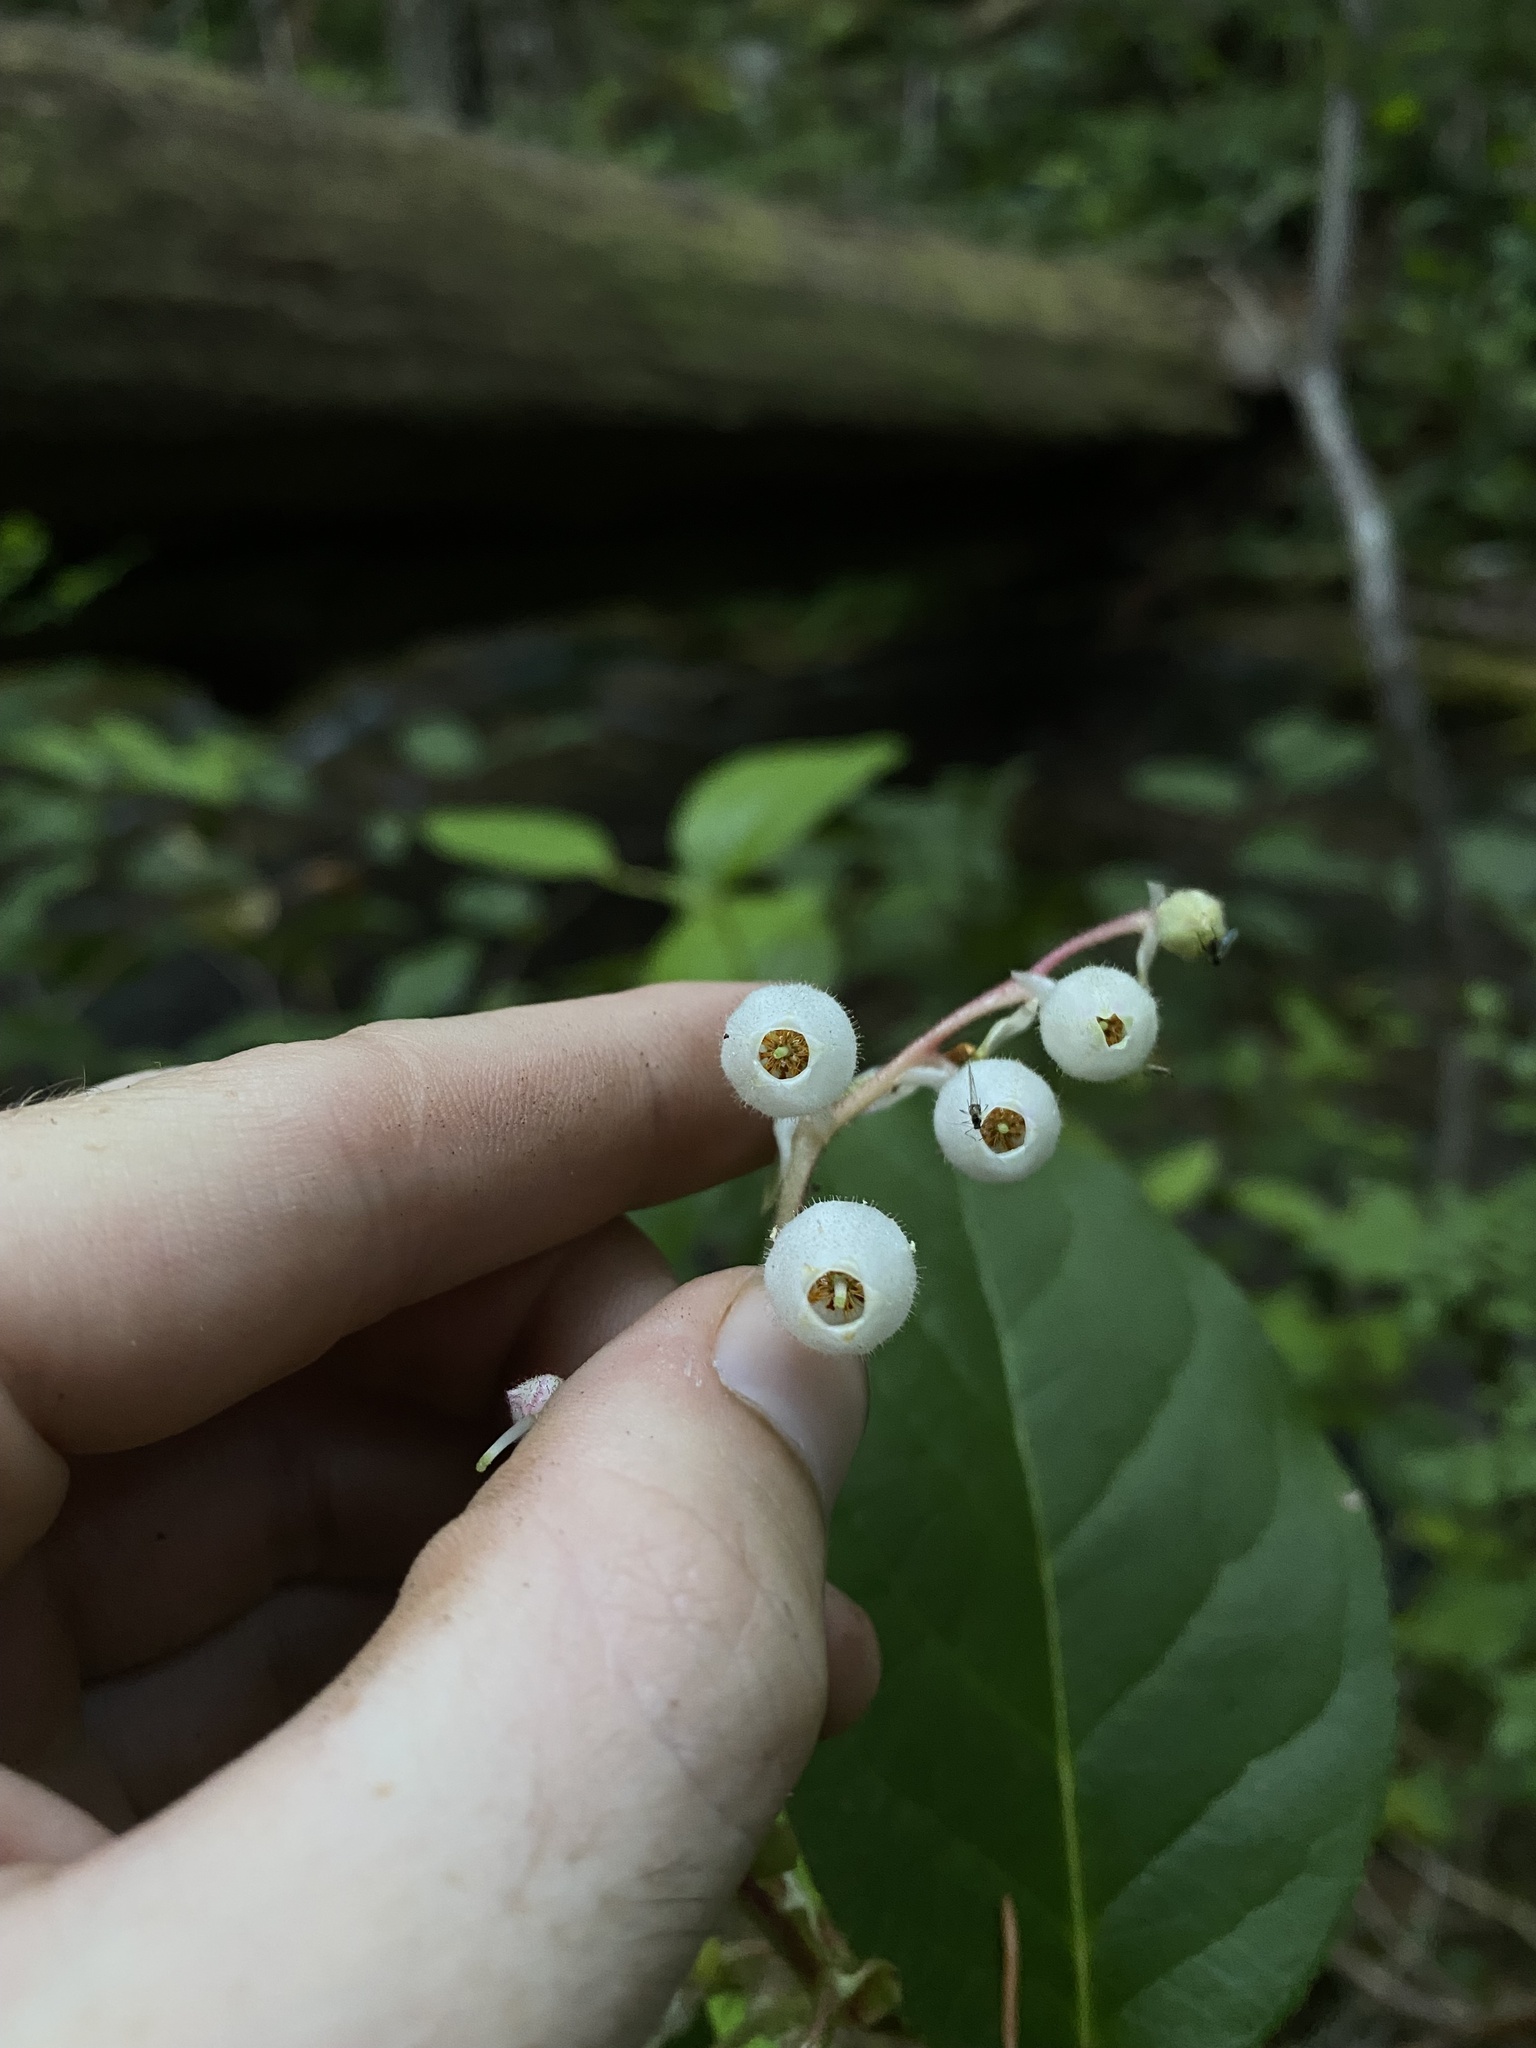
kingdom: Plantae
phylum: Tracheophyta
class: Magnoliopsida
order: Ericales
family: Ericaceae
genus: Gaultheria
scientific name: Gaultheria shallon
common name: Shallon
